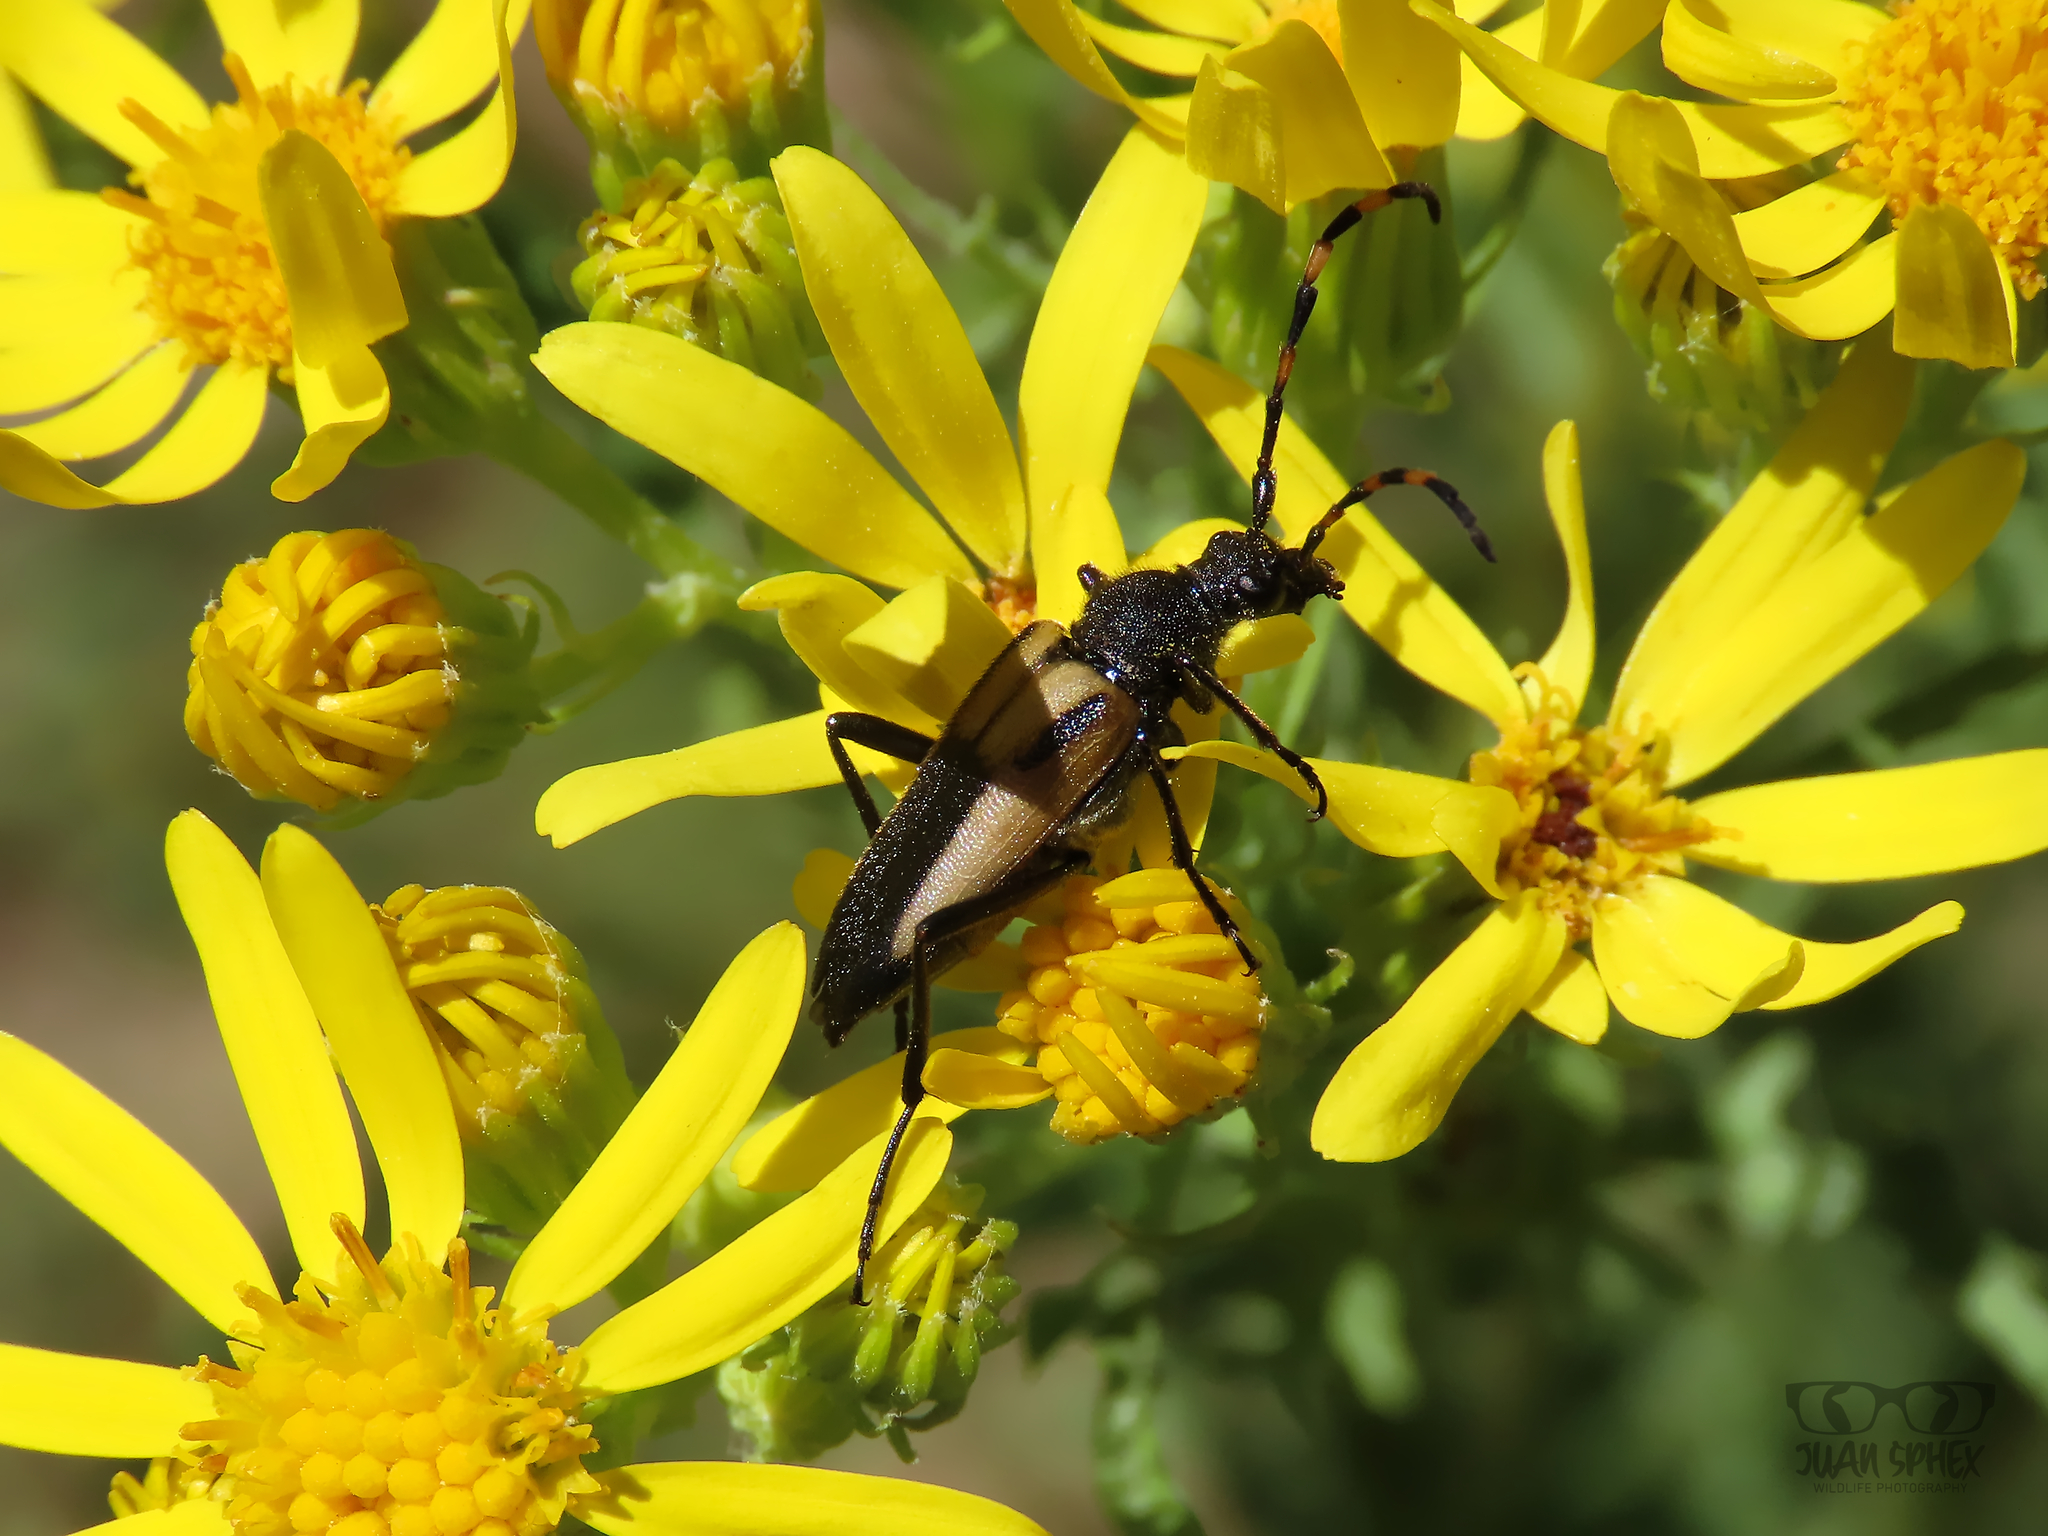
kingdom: Animalia
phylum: Arthropoda
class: Insecta
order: Coleoptera
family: Cerambycidae
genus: Stictoleptura
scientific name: Stictoleptura stragulata
